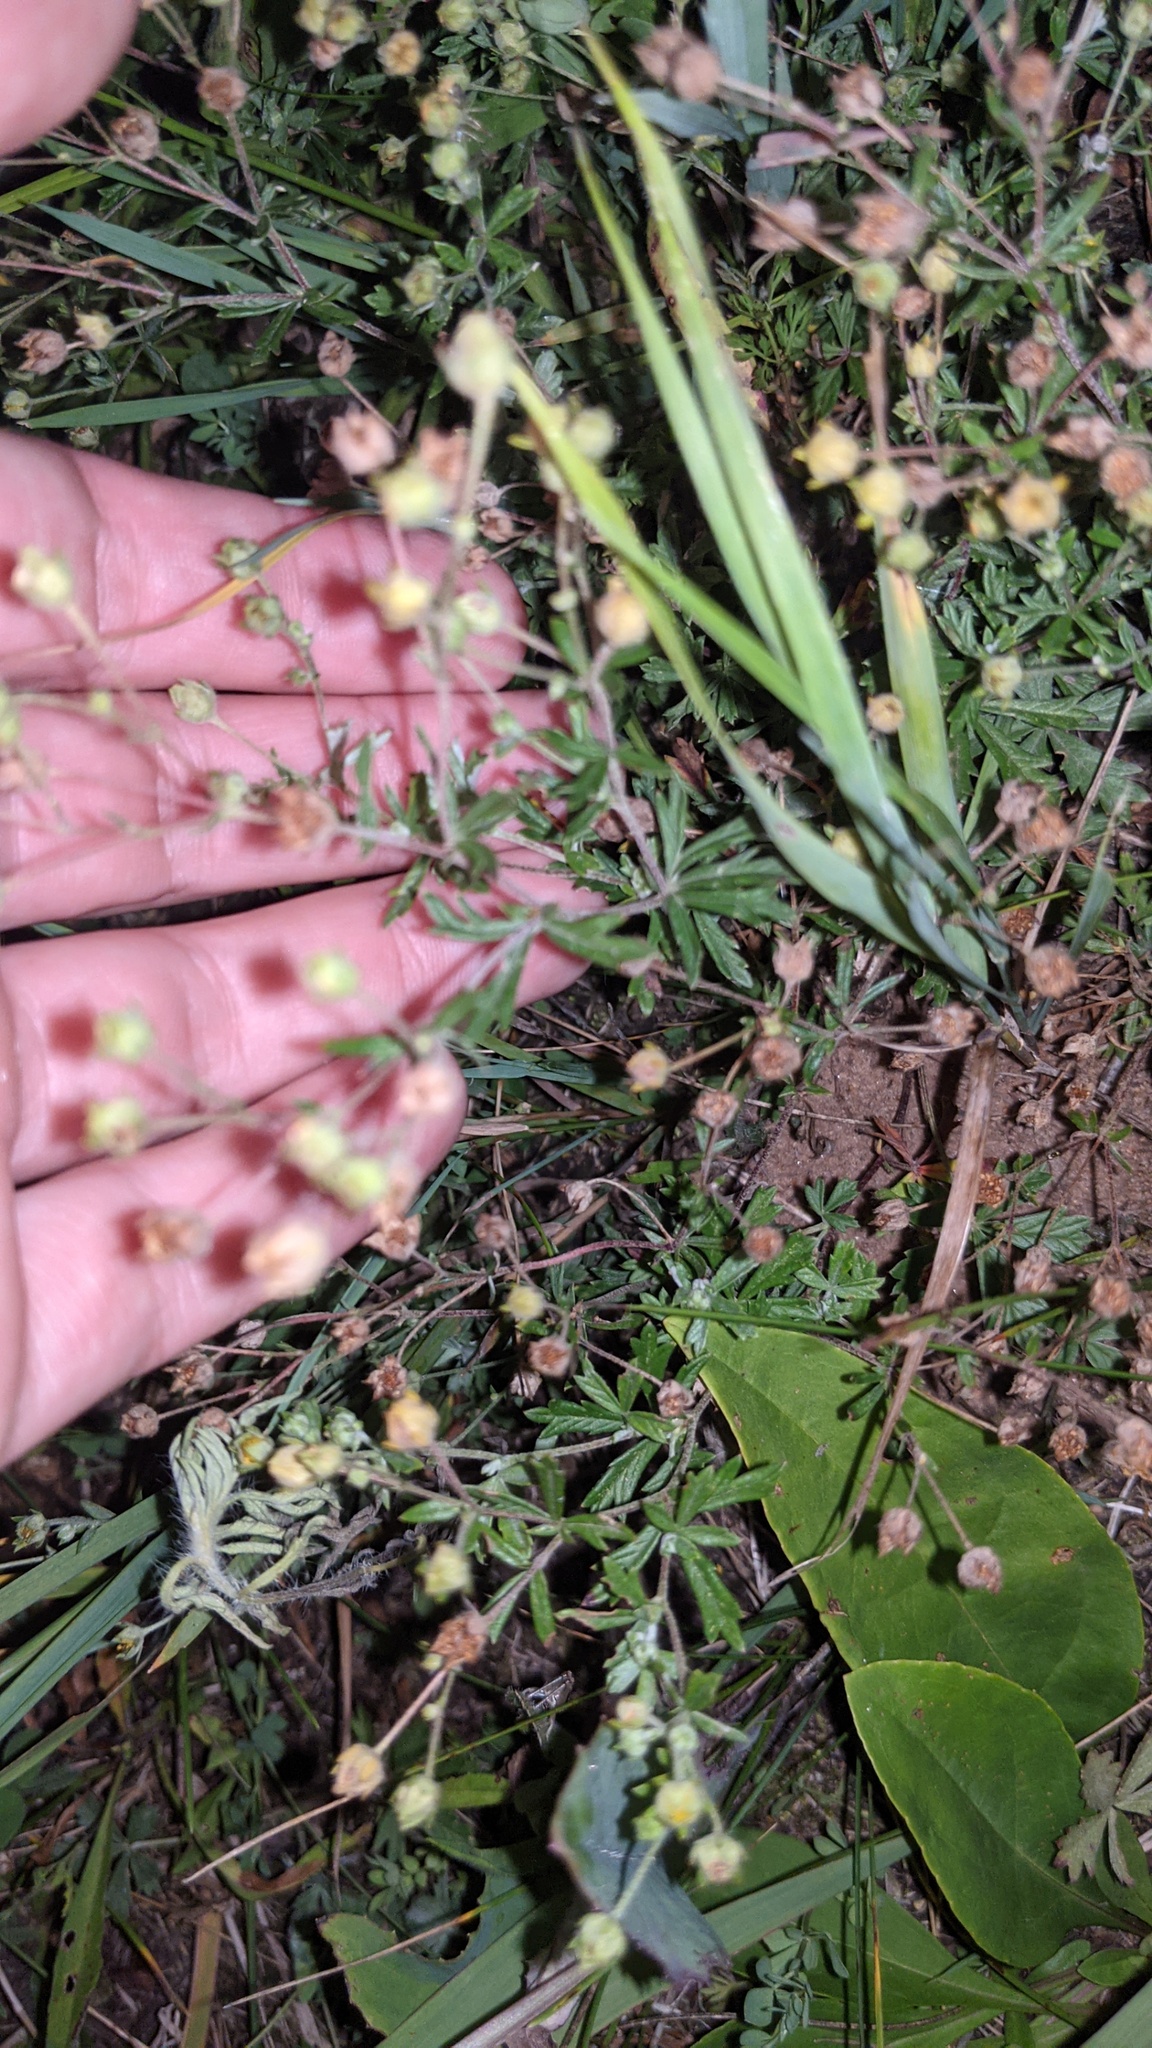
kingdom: Plantae
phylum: Tracheophyta
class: Magnoliopsida
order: Rosales
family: Rosaceae
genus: Potentilla
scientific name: Potentilla argentea
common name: Hoary cinquefoil
